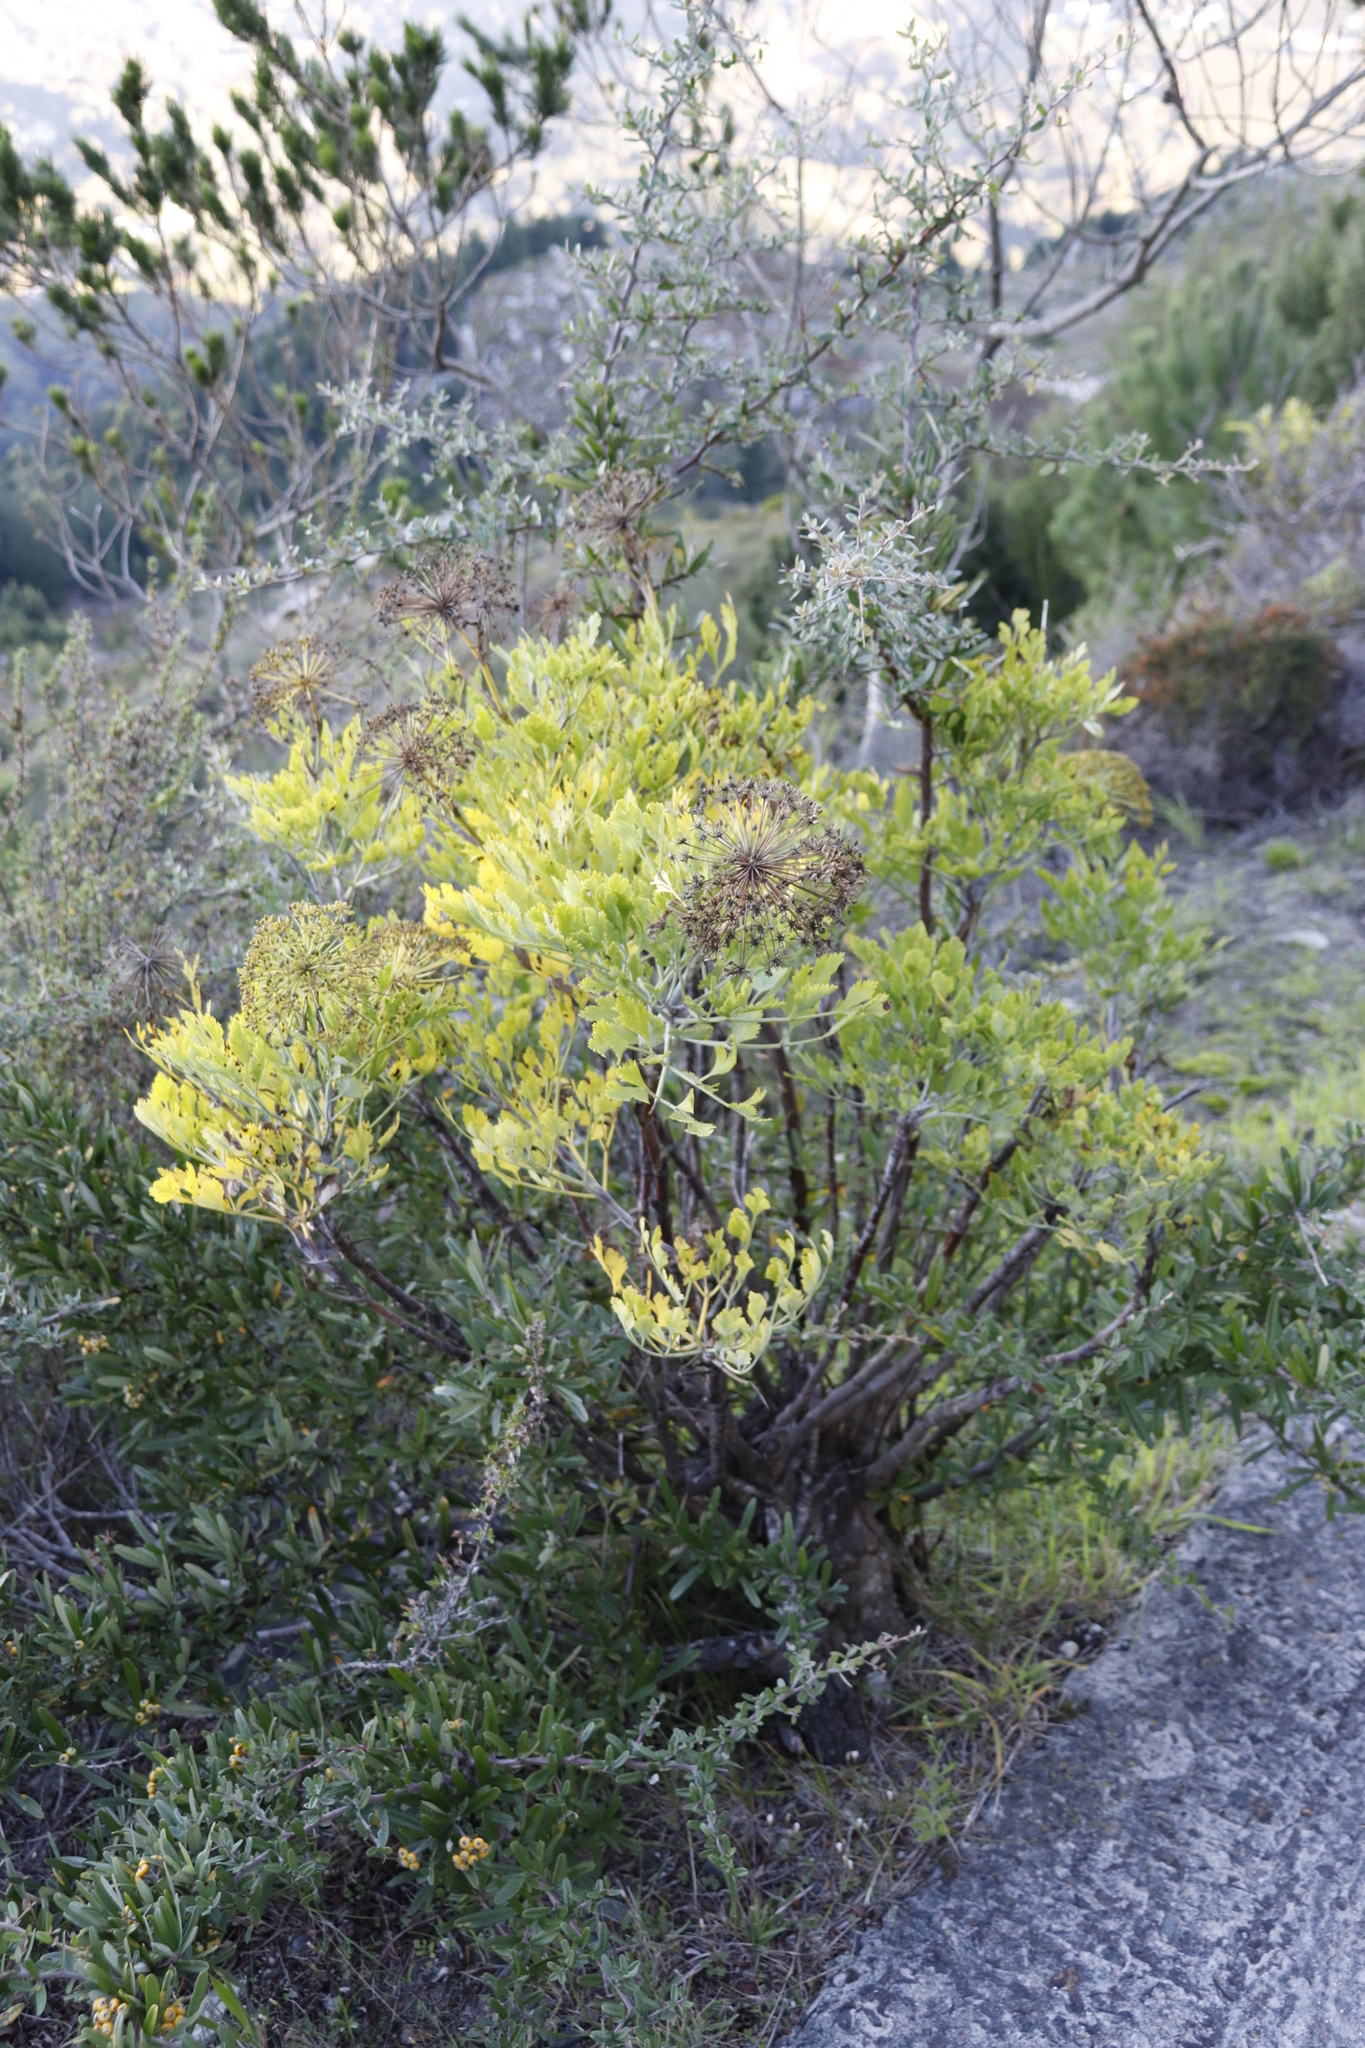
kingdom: Plantae
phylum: Tracheophyta
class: Magnoliopsida
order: Apiales
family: Apiaceae
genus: Notobubon
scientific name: Notobubon galbanum
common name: Blisterbush
